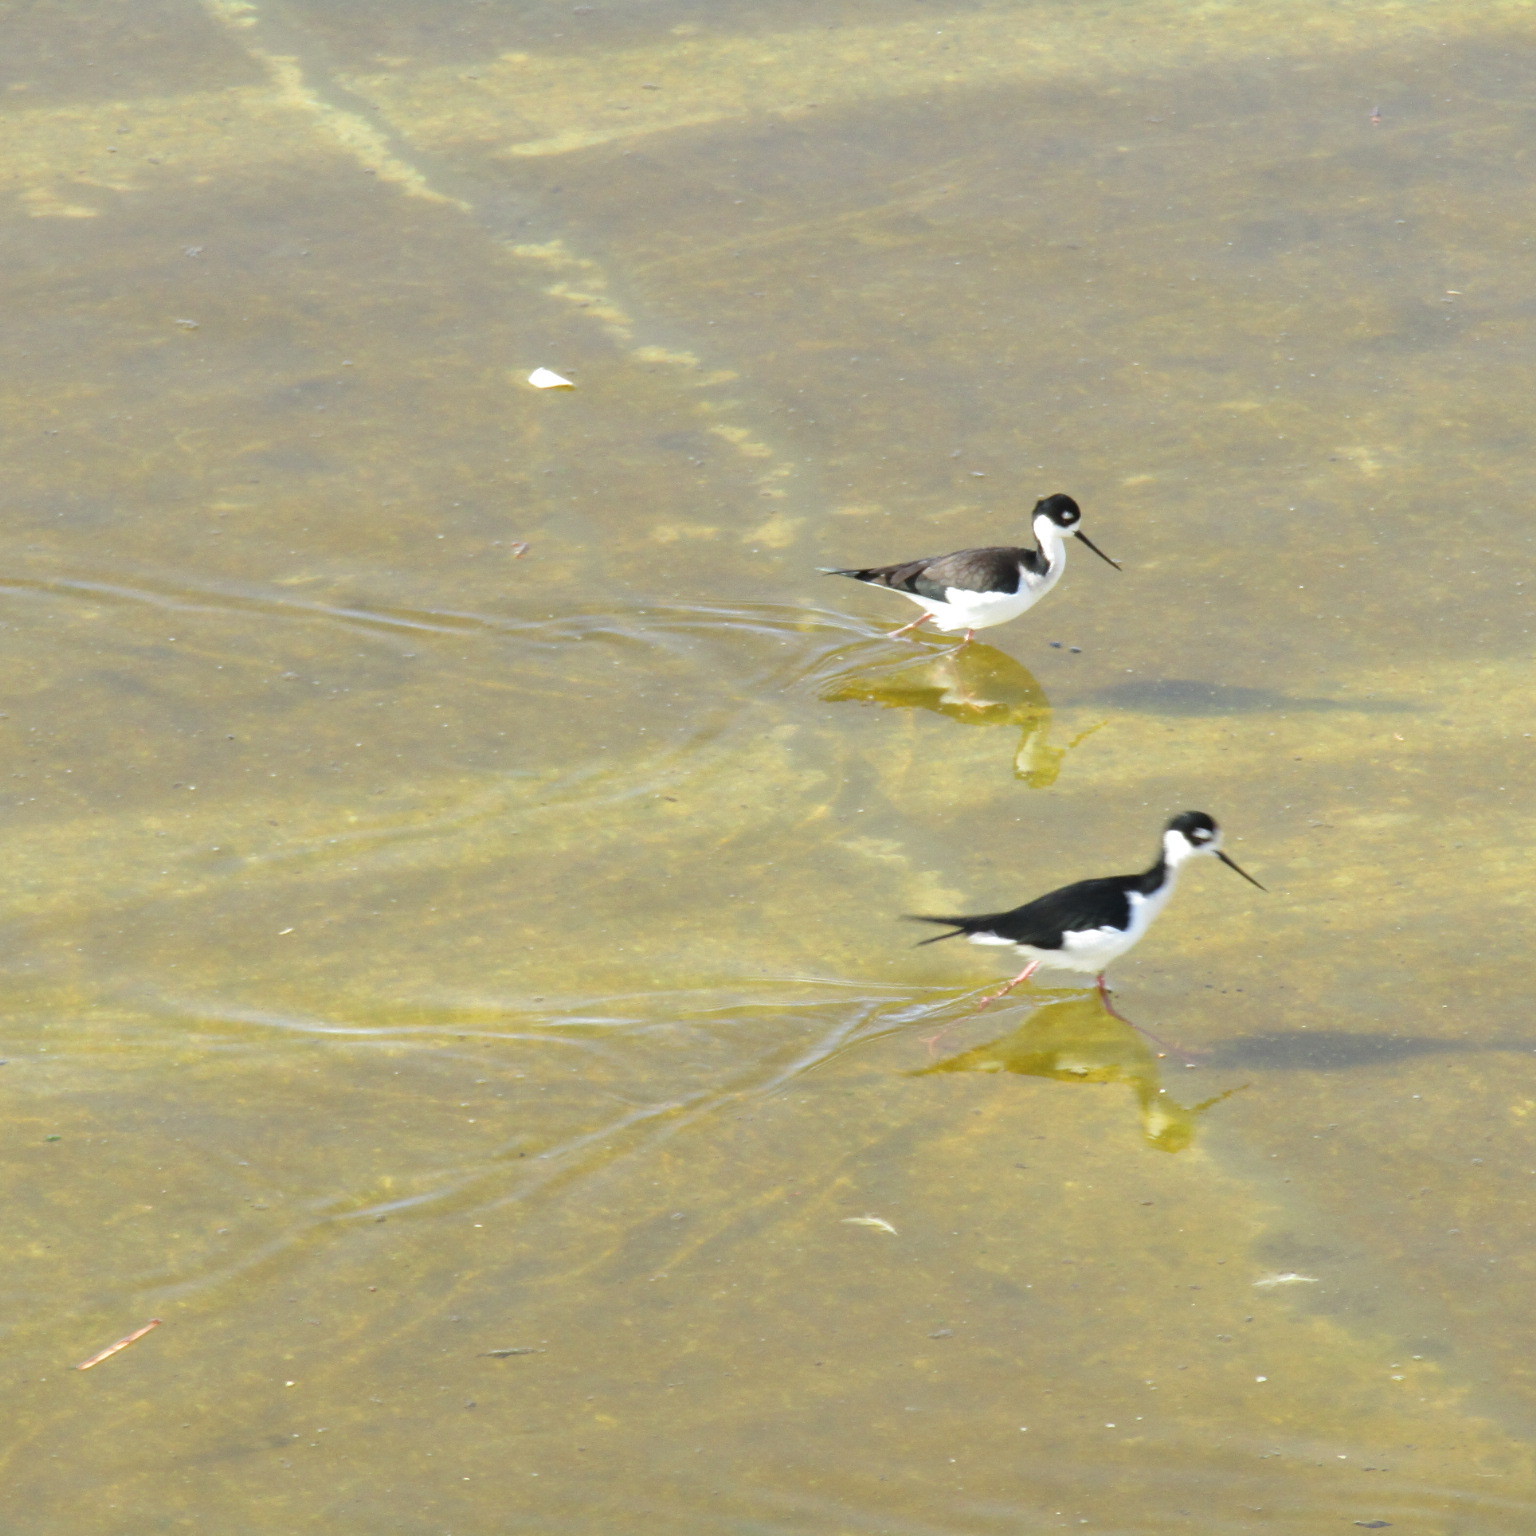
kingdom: Animalia
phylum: Chordata
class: Aves
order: Charadriiformes
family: Recurvirostridae
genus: Himantopus
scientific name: Himantopus mexicanus
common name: Black-necked stilt
